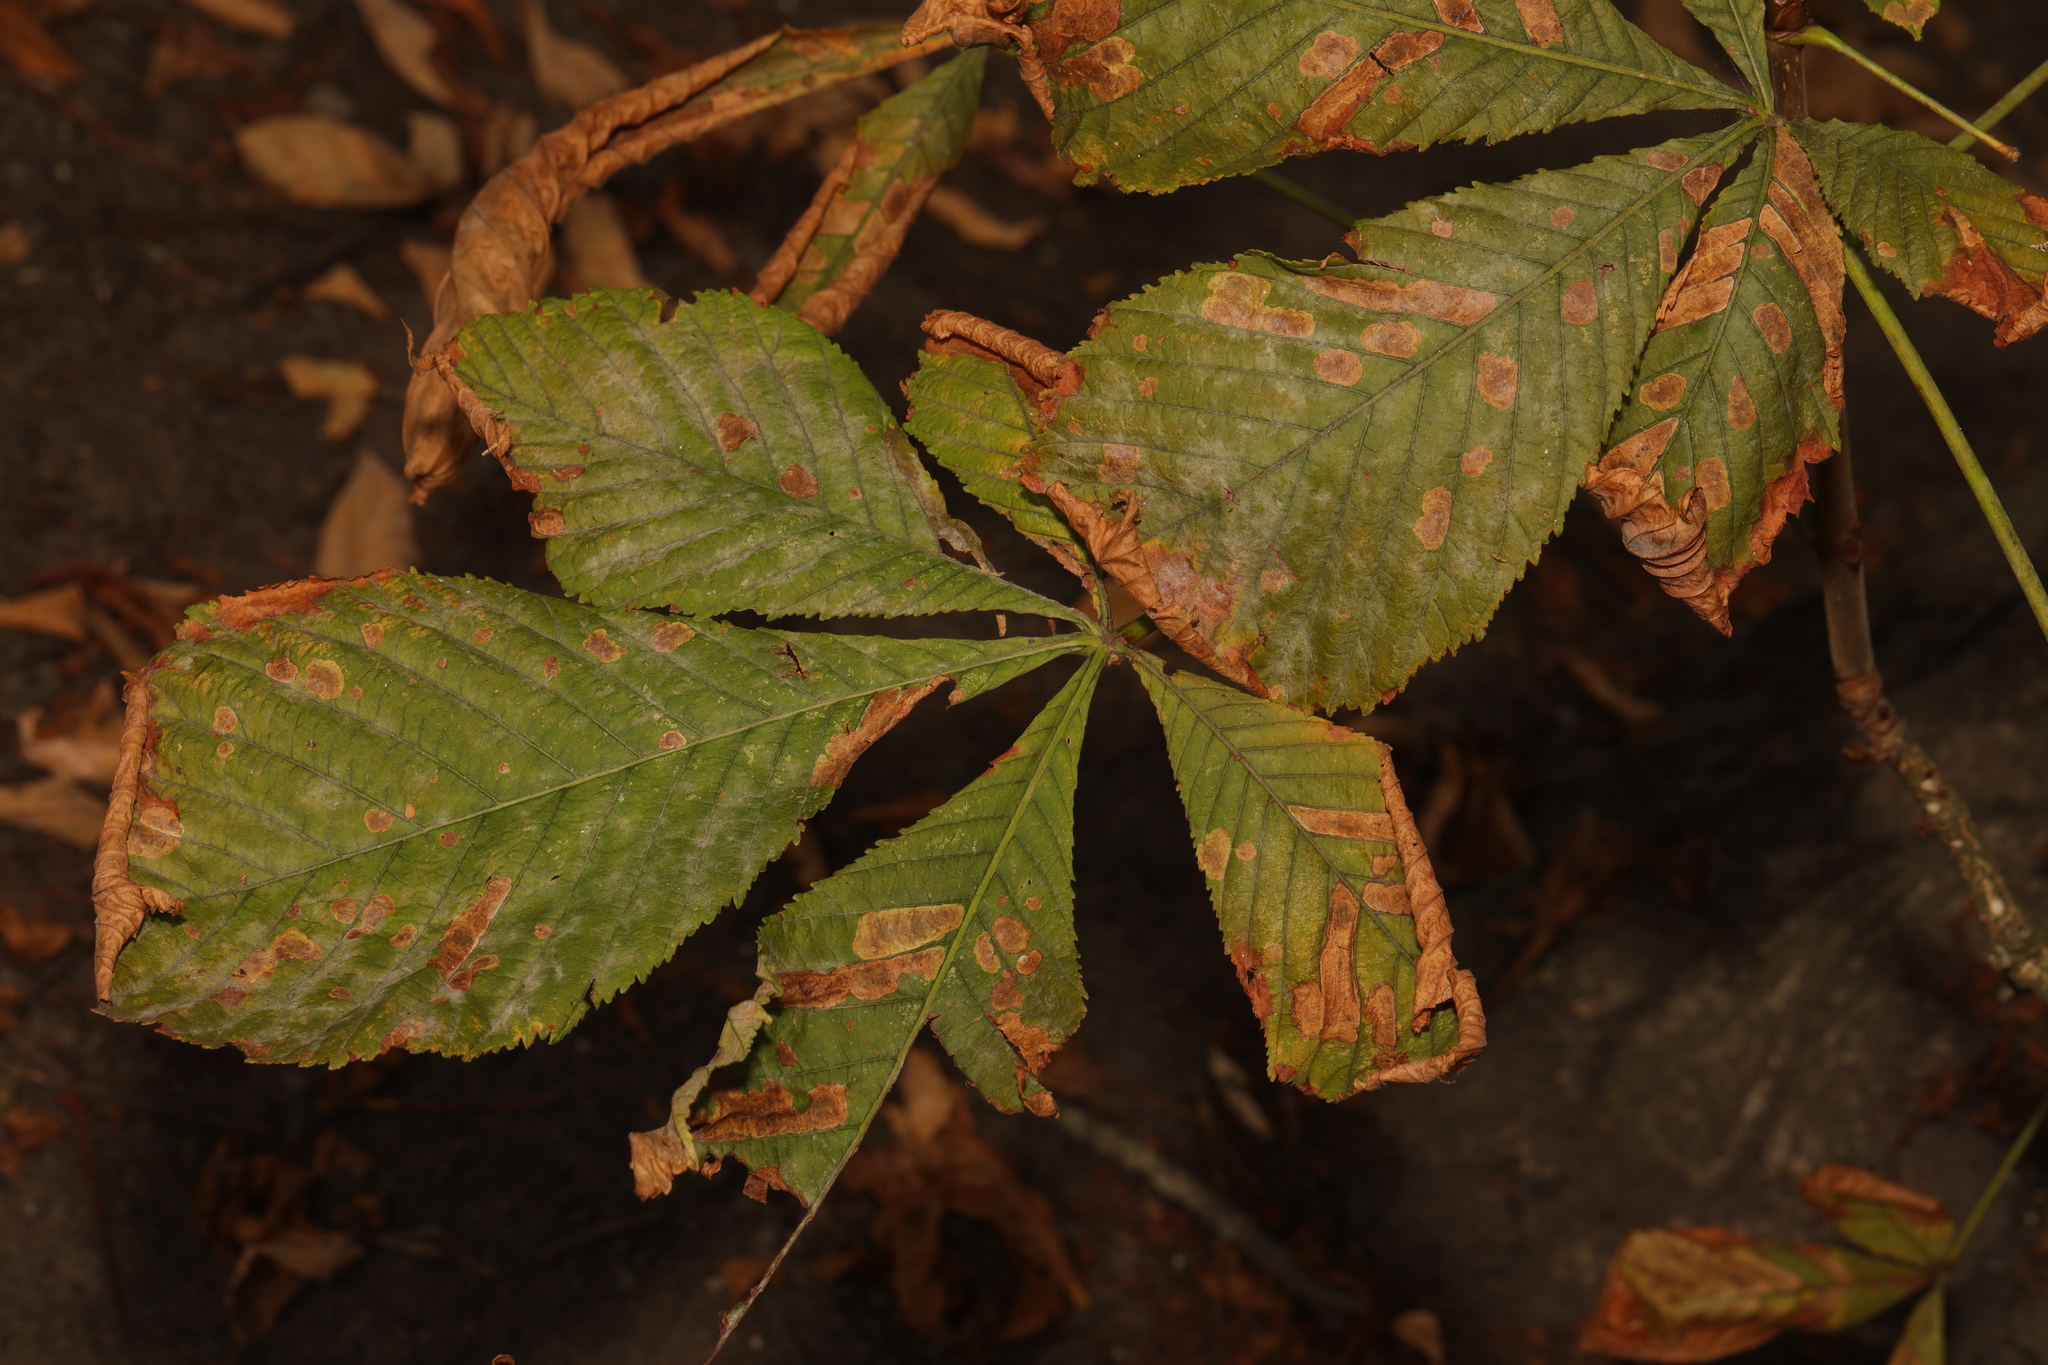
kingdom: Plantae
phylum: Tracheophyta
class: Magnoliopsida
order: Sapindales
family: Sapindaceae
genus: Aesculus
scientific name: Aesculus hippocastanum
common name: Horse-chestnut
